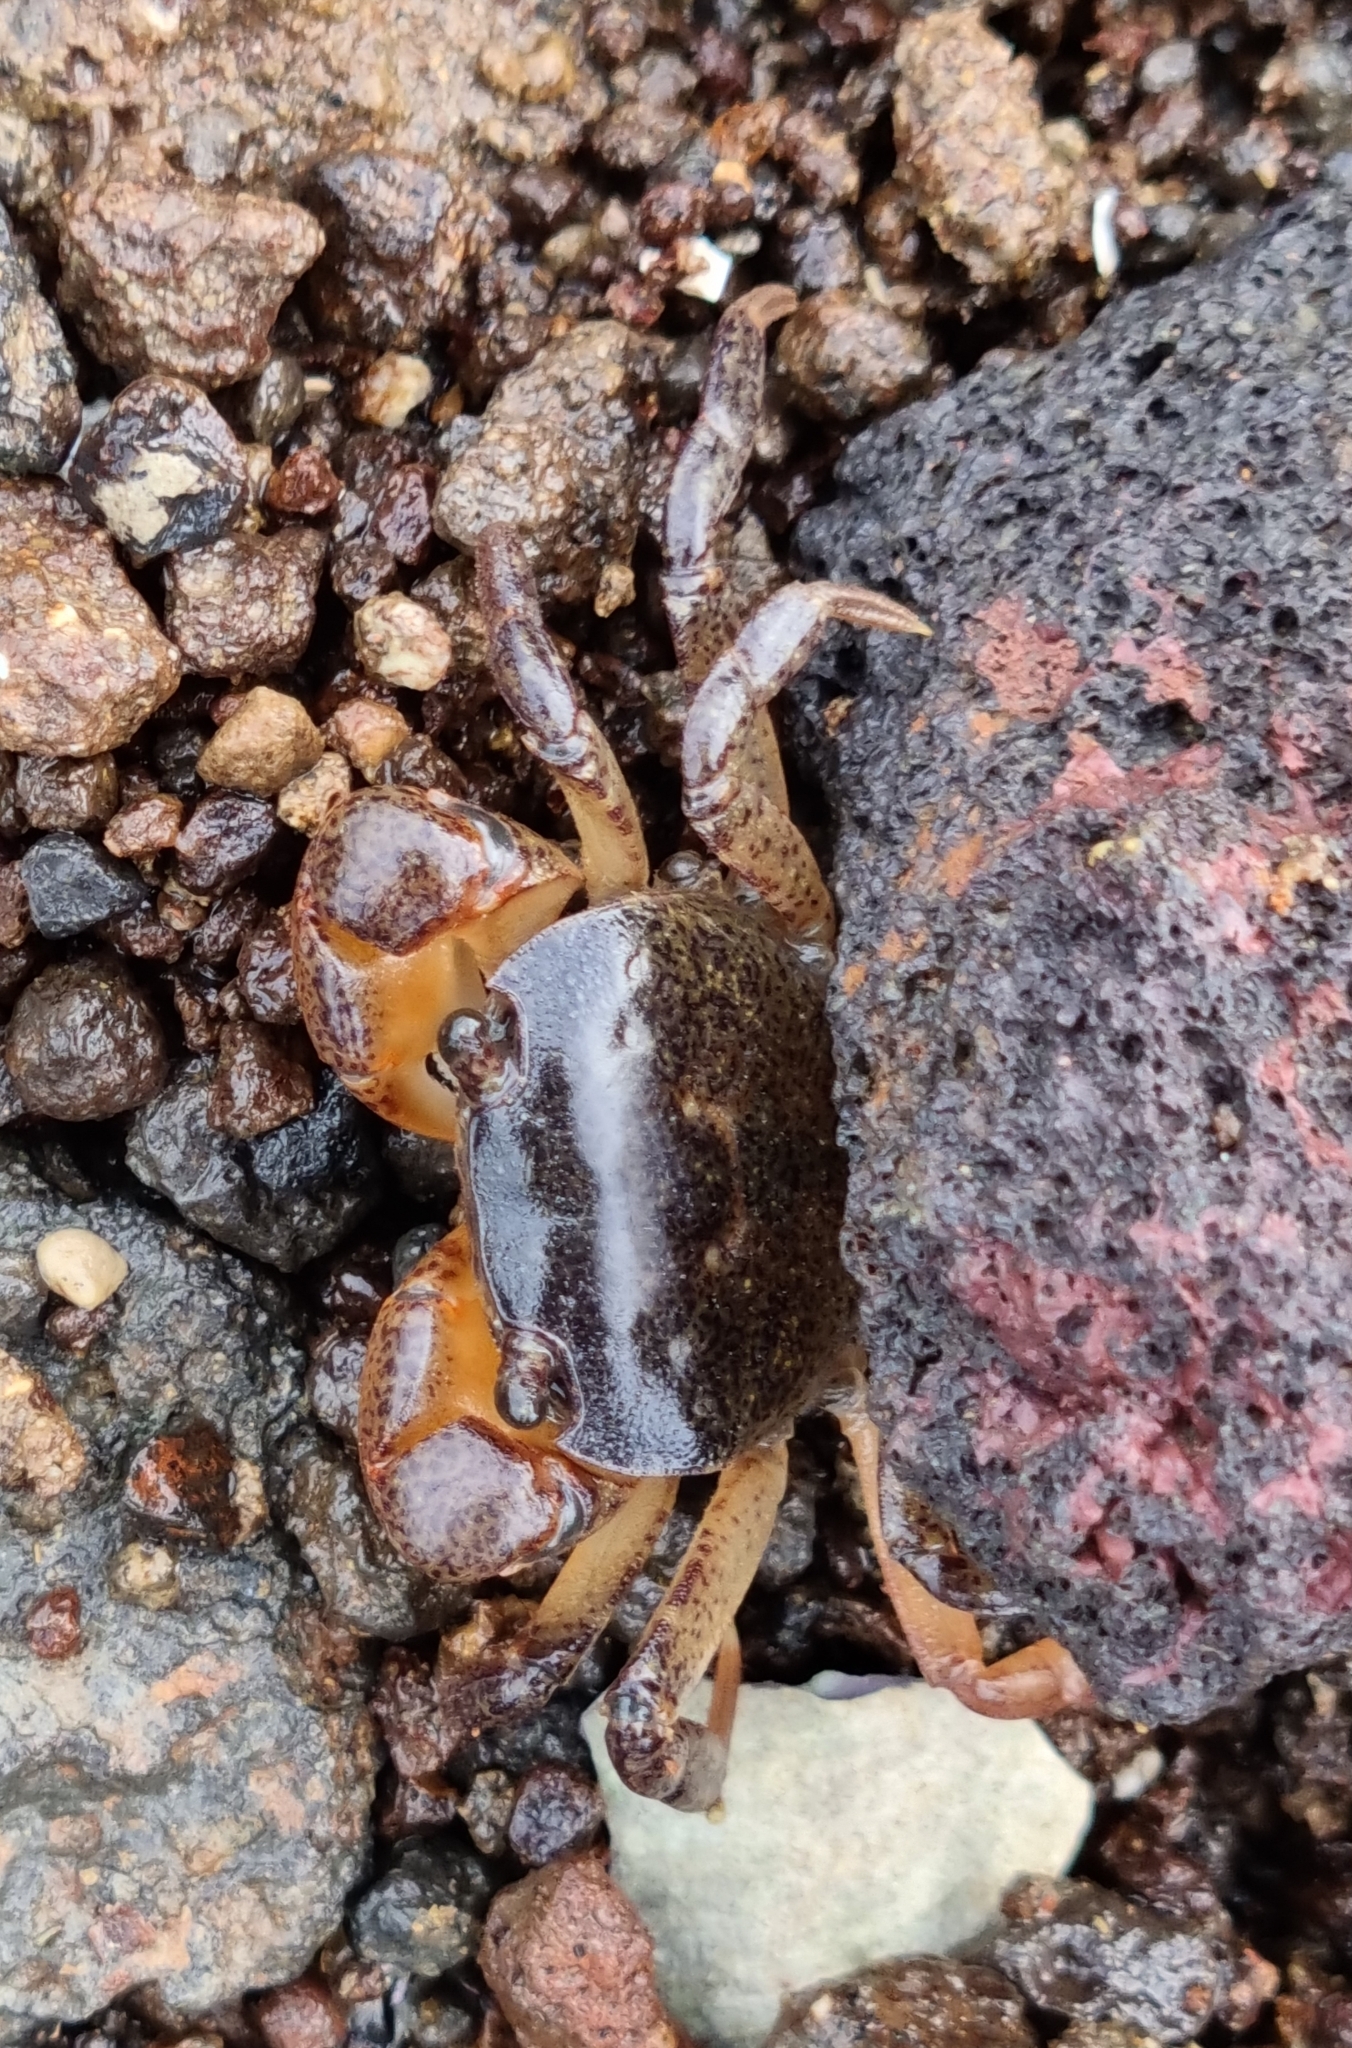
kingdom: Animalia
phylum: Arthropoda
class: Malacostraca
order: Decapoda
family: Varunidae
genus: Cyclograpsus
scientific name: Cyclograpsus lavauxi
